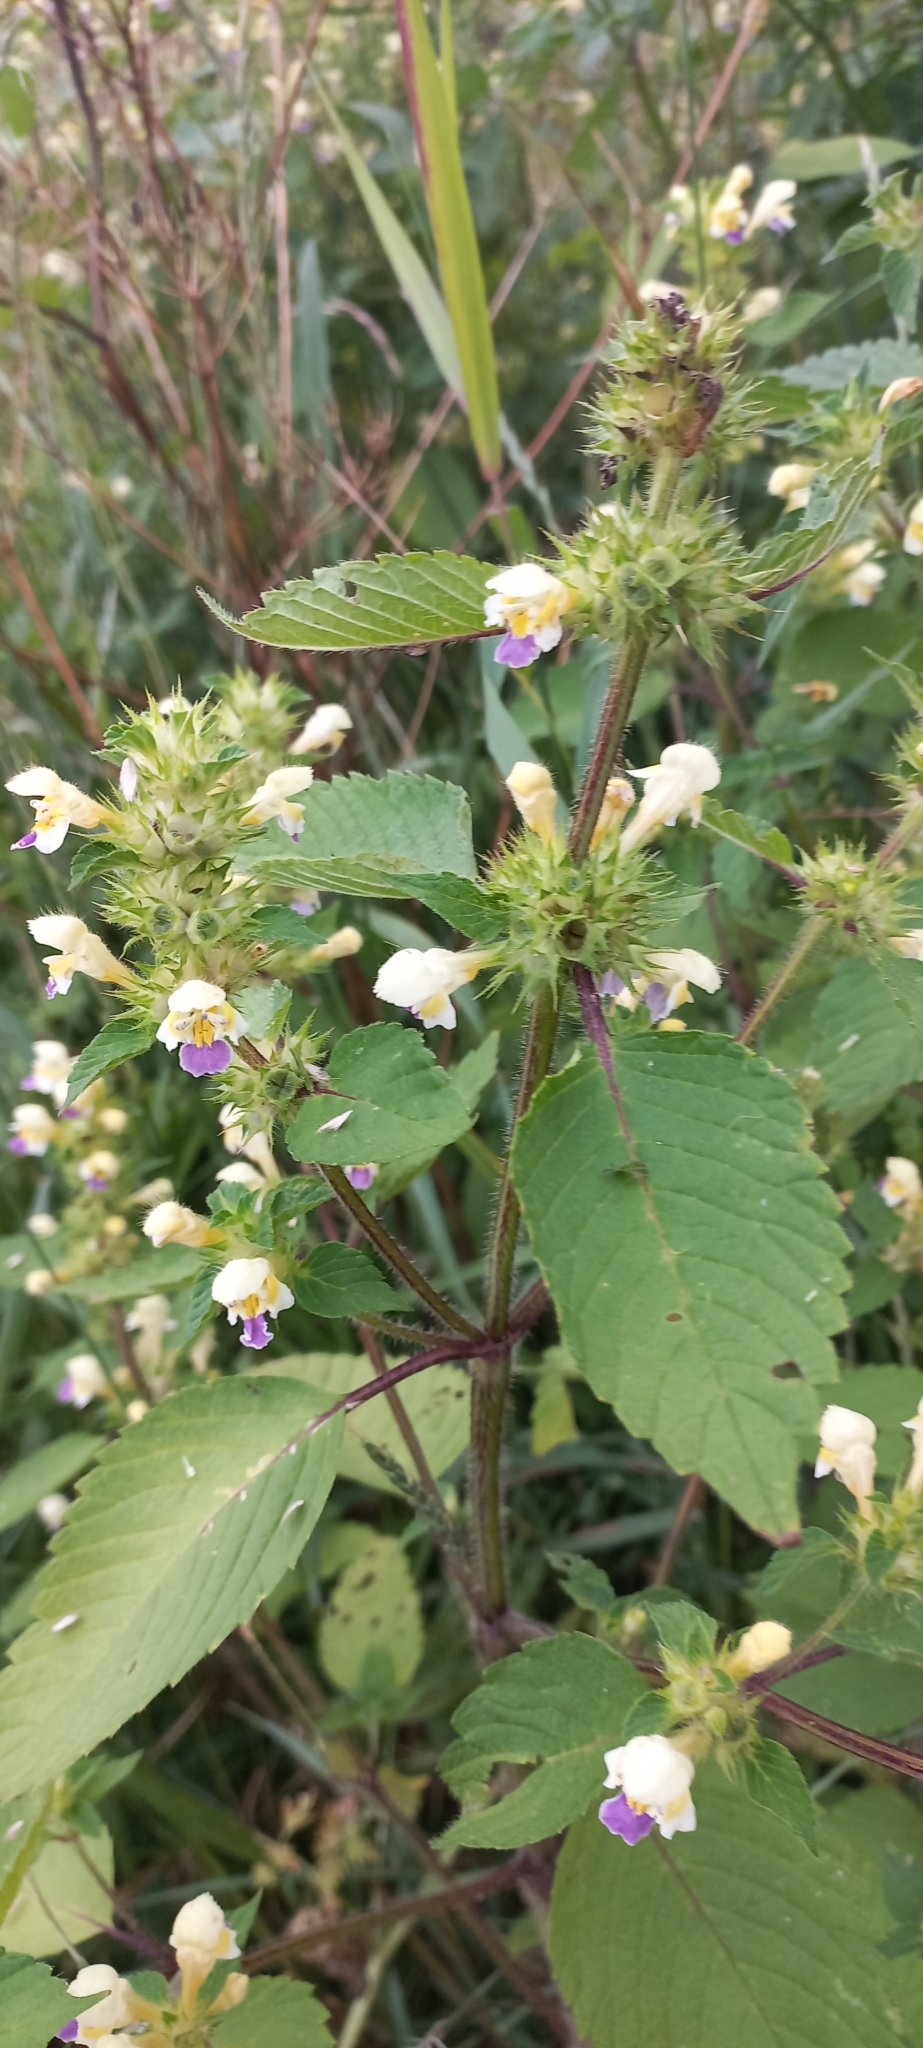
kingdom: Plantae
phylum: Tracheophyta
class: Magnoliopsida
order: Lamiales
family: Lamiaceae
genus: Galeopsis
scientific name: Galeopsis speciosa
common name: Large-flowered hemp-nettle
